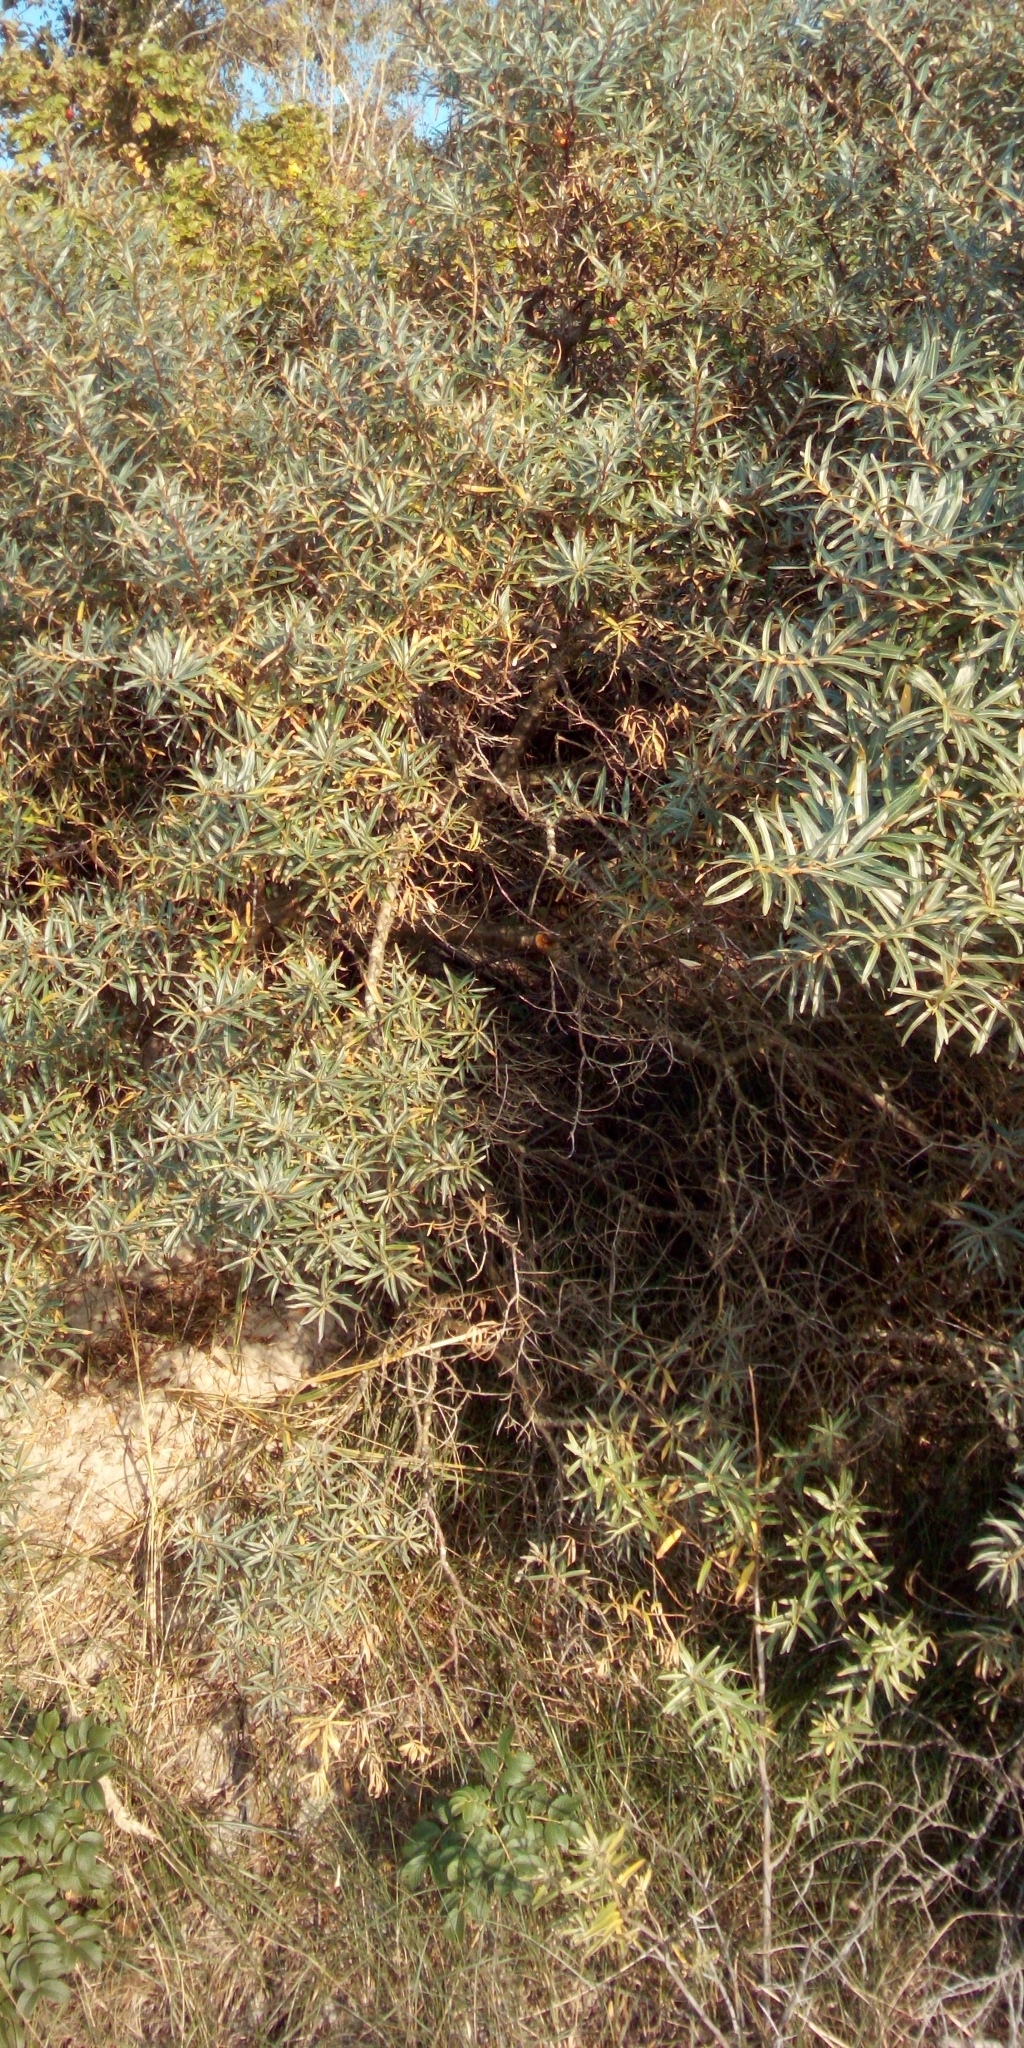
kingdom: Plantae
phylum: Tracheophyta
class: Magnoliopsida
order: Rosales
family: Elaeagnaceae
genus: Hippophae
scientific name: Hippophae rhamnoides
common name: Sea-buckthorn
